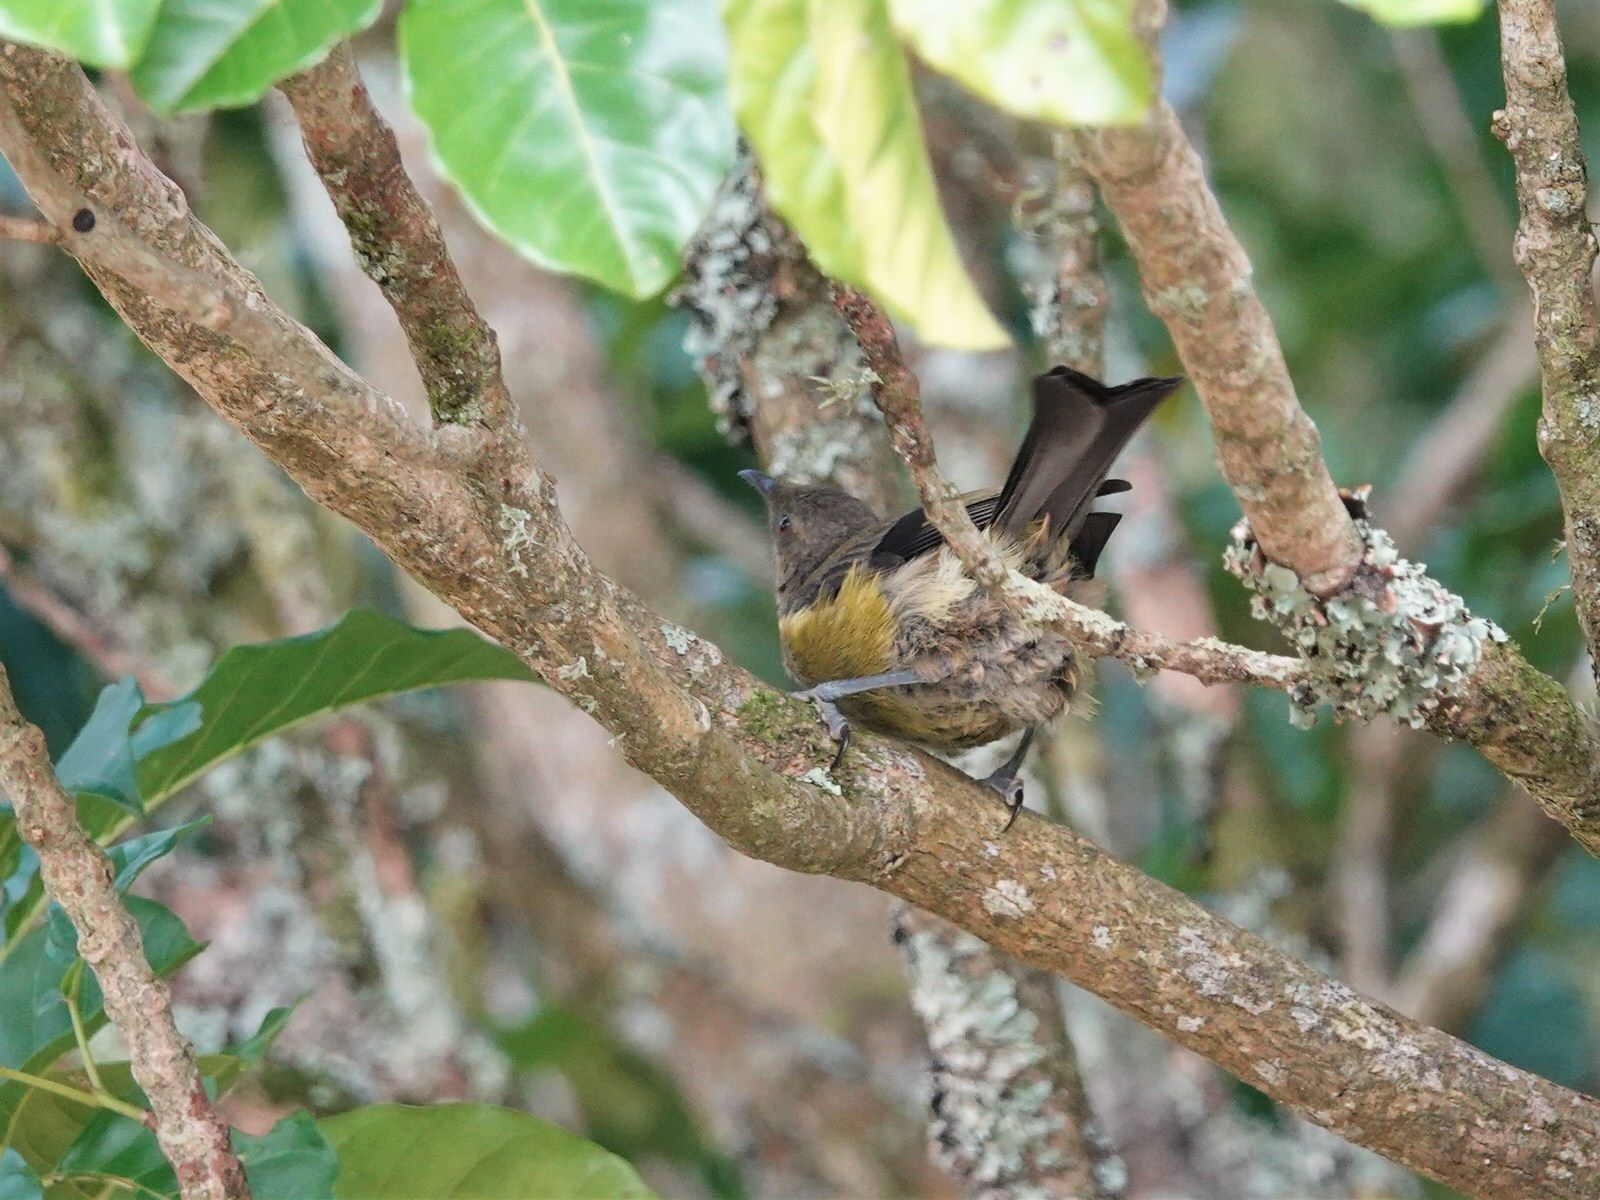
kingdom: Animalia
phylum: Chordata
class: Aves
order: Passeriformes
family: Meliphagidae
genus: Anthornis
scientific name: Anthornis melanura
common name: New zealand bellbird
